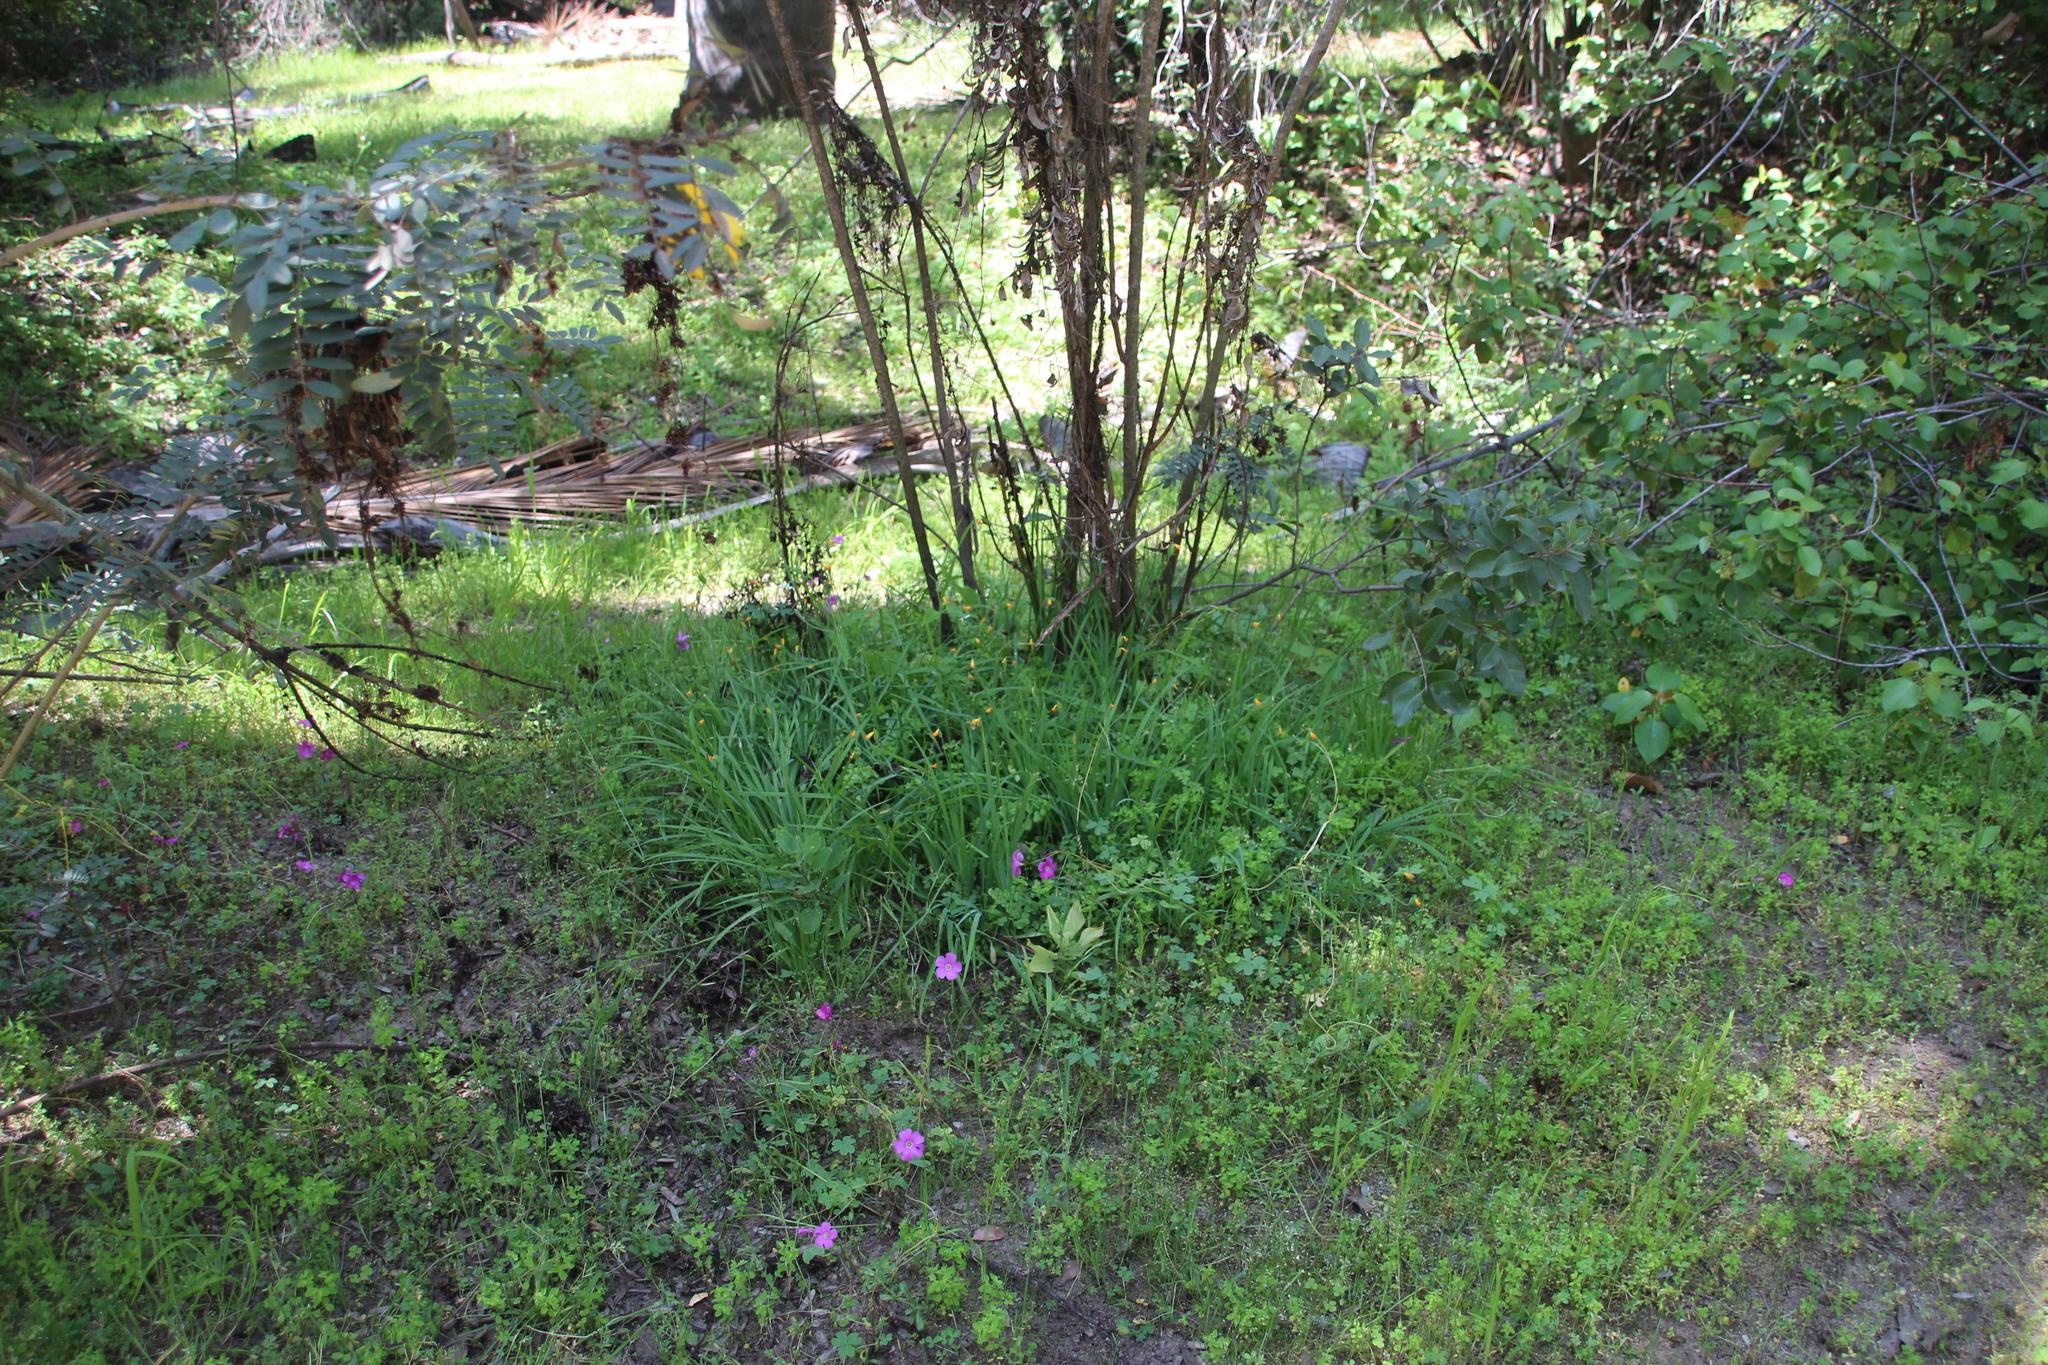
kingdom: Plantae
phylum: Tracheophyta
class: Liliopsida
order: Asparagales
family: Iridaceae
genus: Solenomelus
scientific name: Solenomelus pedunculatus
